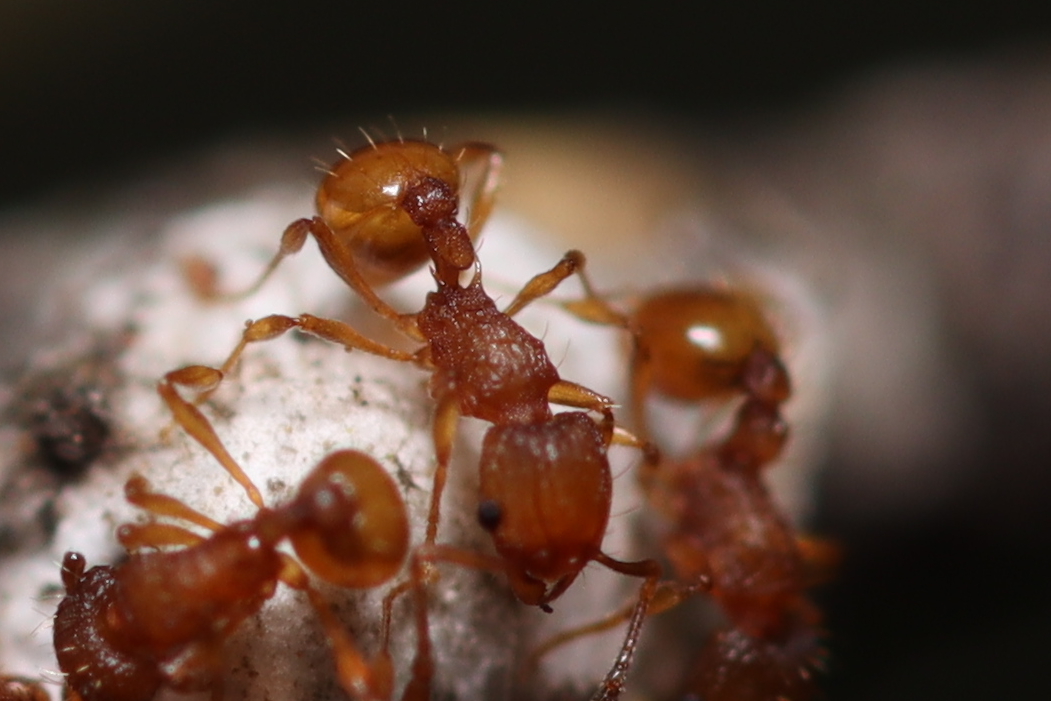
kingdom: Animalia
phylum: Arthropoda
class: Insecta
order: Hymenoptera
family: Formicidae
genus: Wasmannia
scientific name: Wasmannia auropunctata
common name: Little fire ant
